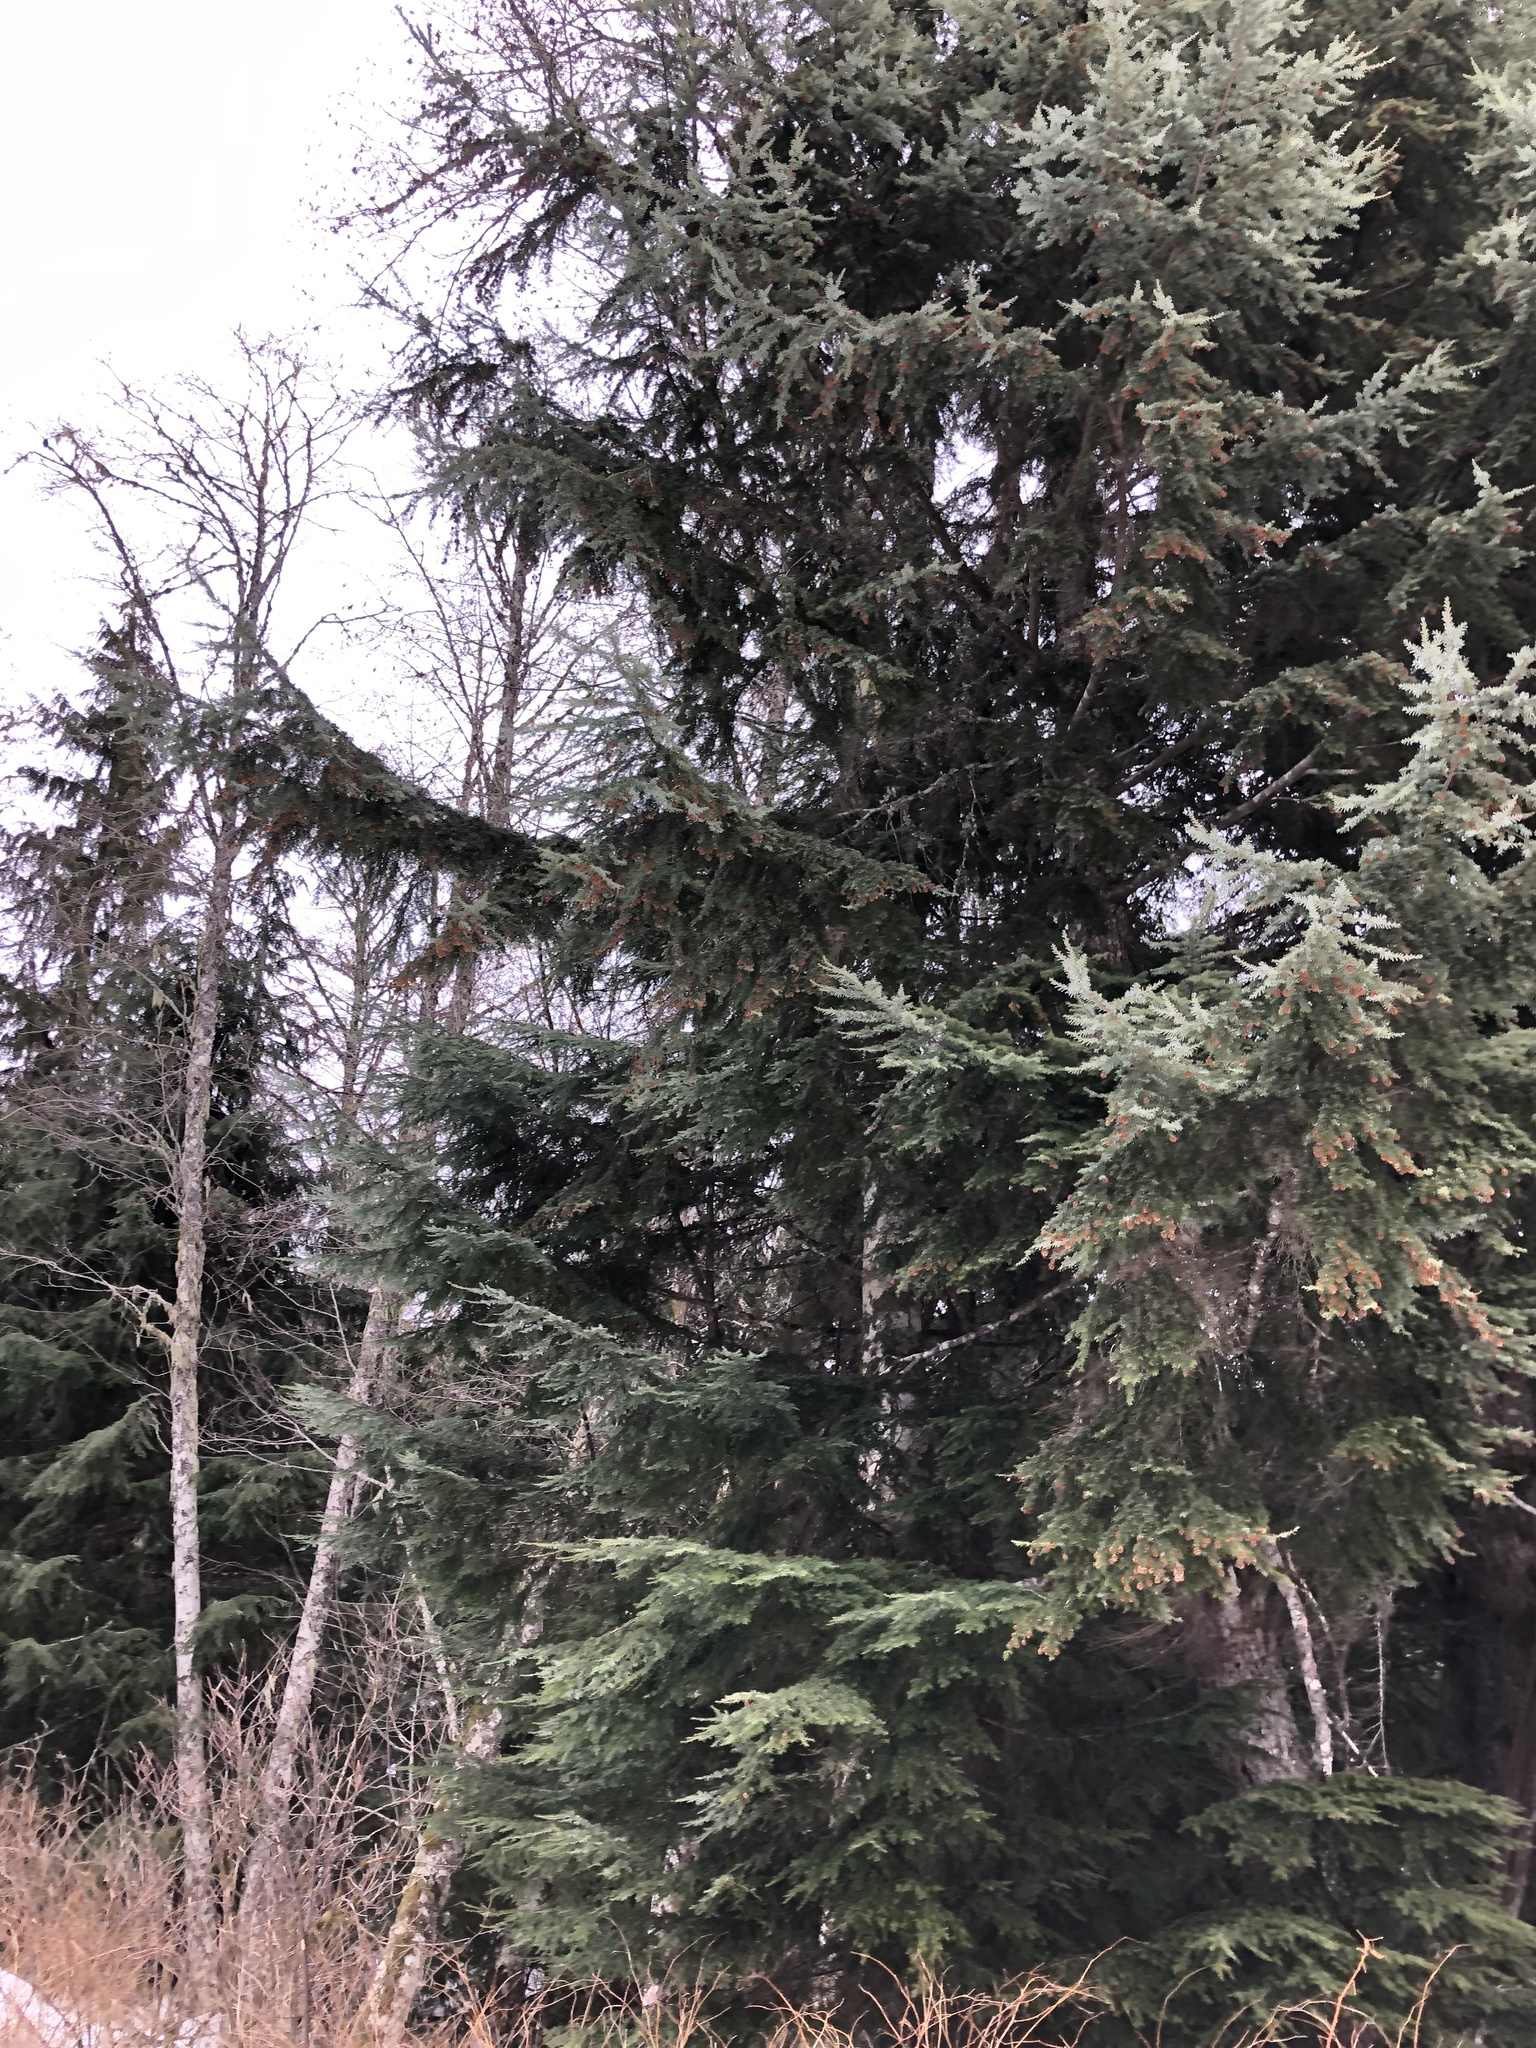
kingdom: Plantae
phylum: Tracheophyta
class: Pinopsida
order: Pinales
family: Pinaceae
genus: Tsuga
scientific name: Tsuga heterophylla
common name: Western hemlock
